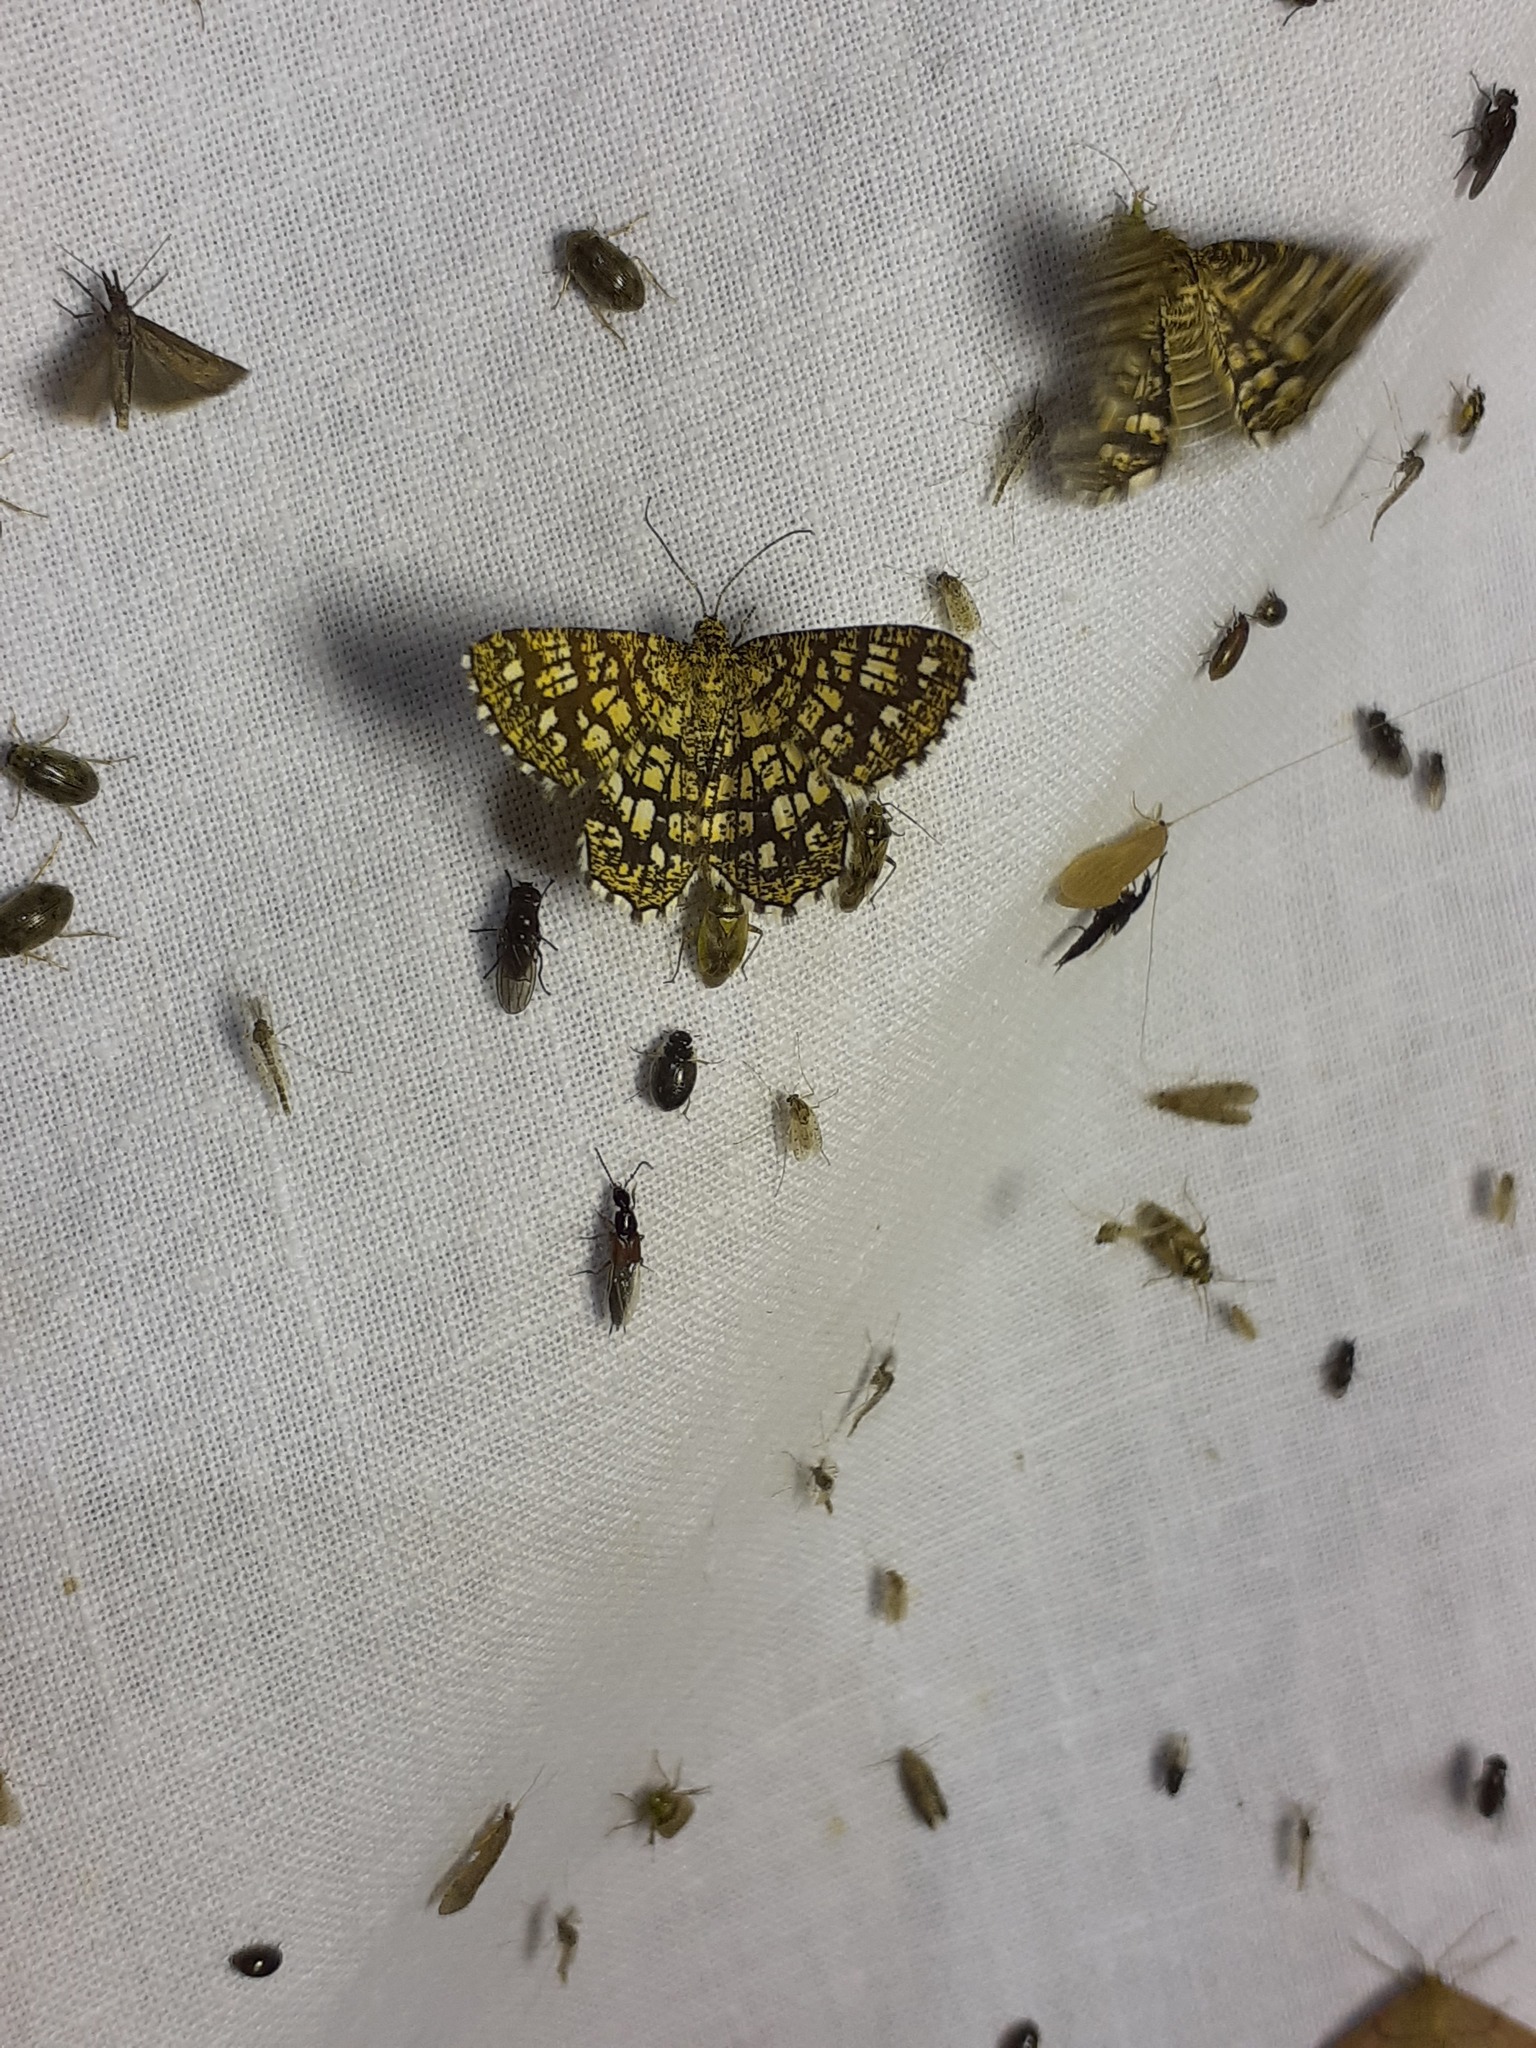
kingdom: Animalia
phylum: Arthropoda
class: Insecta
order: Lepidoptera
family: Geometridae
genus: Chiasmia
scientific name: Chiasmia clathrata
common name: Latticed heath
